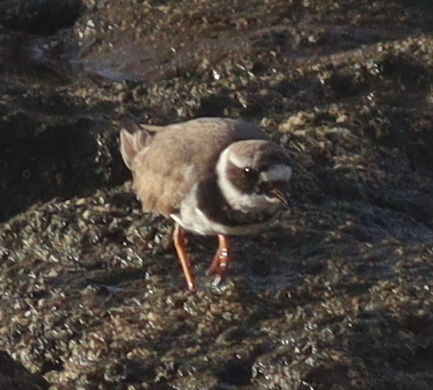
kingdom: Animalia
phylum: Chordata
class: Aves
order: Charadriiformes
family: Charadriidae
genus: Charadrius
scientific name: Charadrius hiaticula
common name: Common ringed plover
